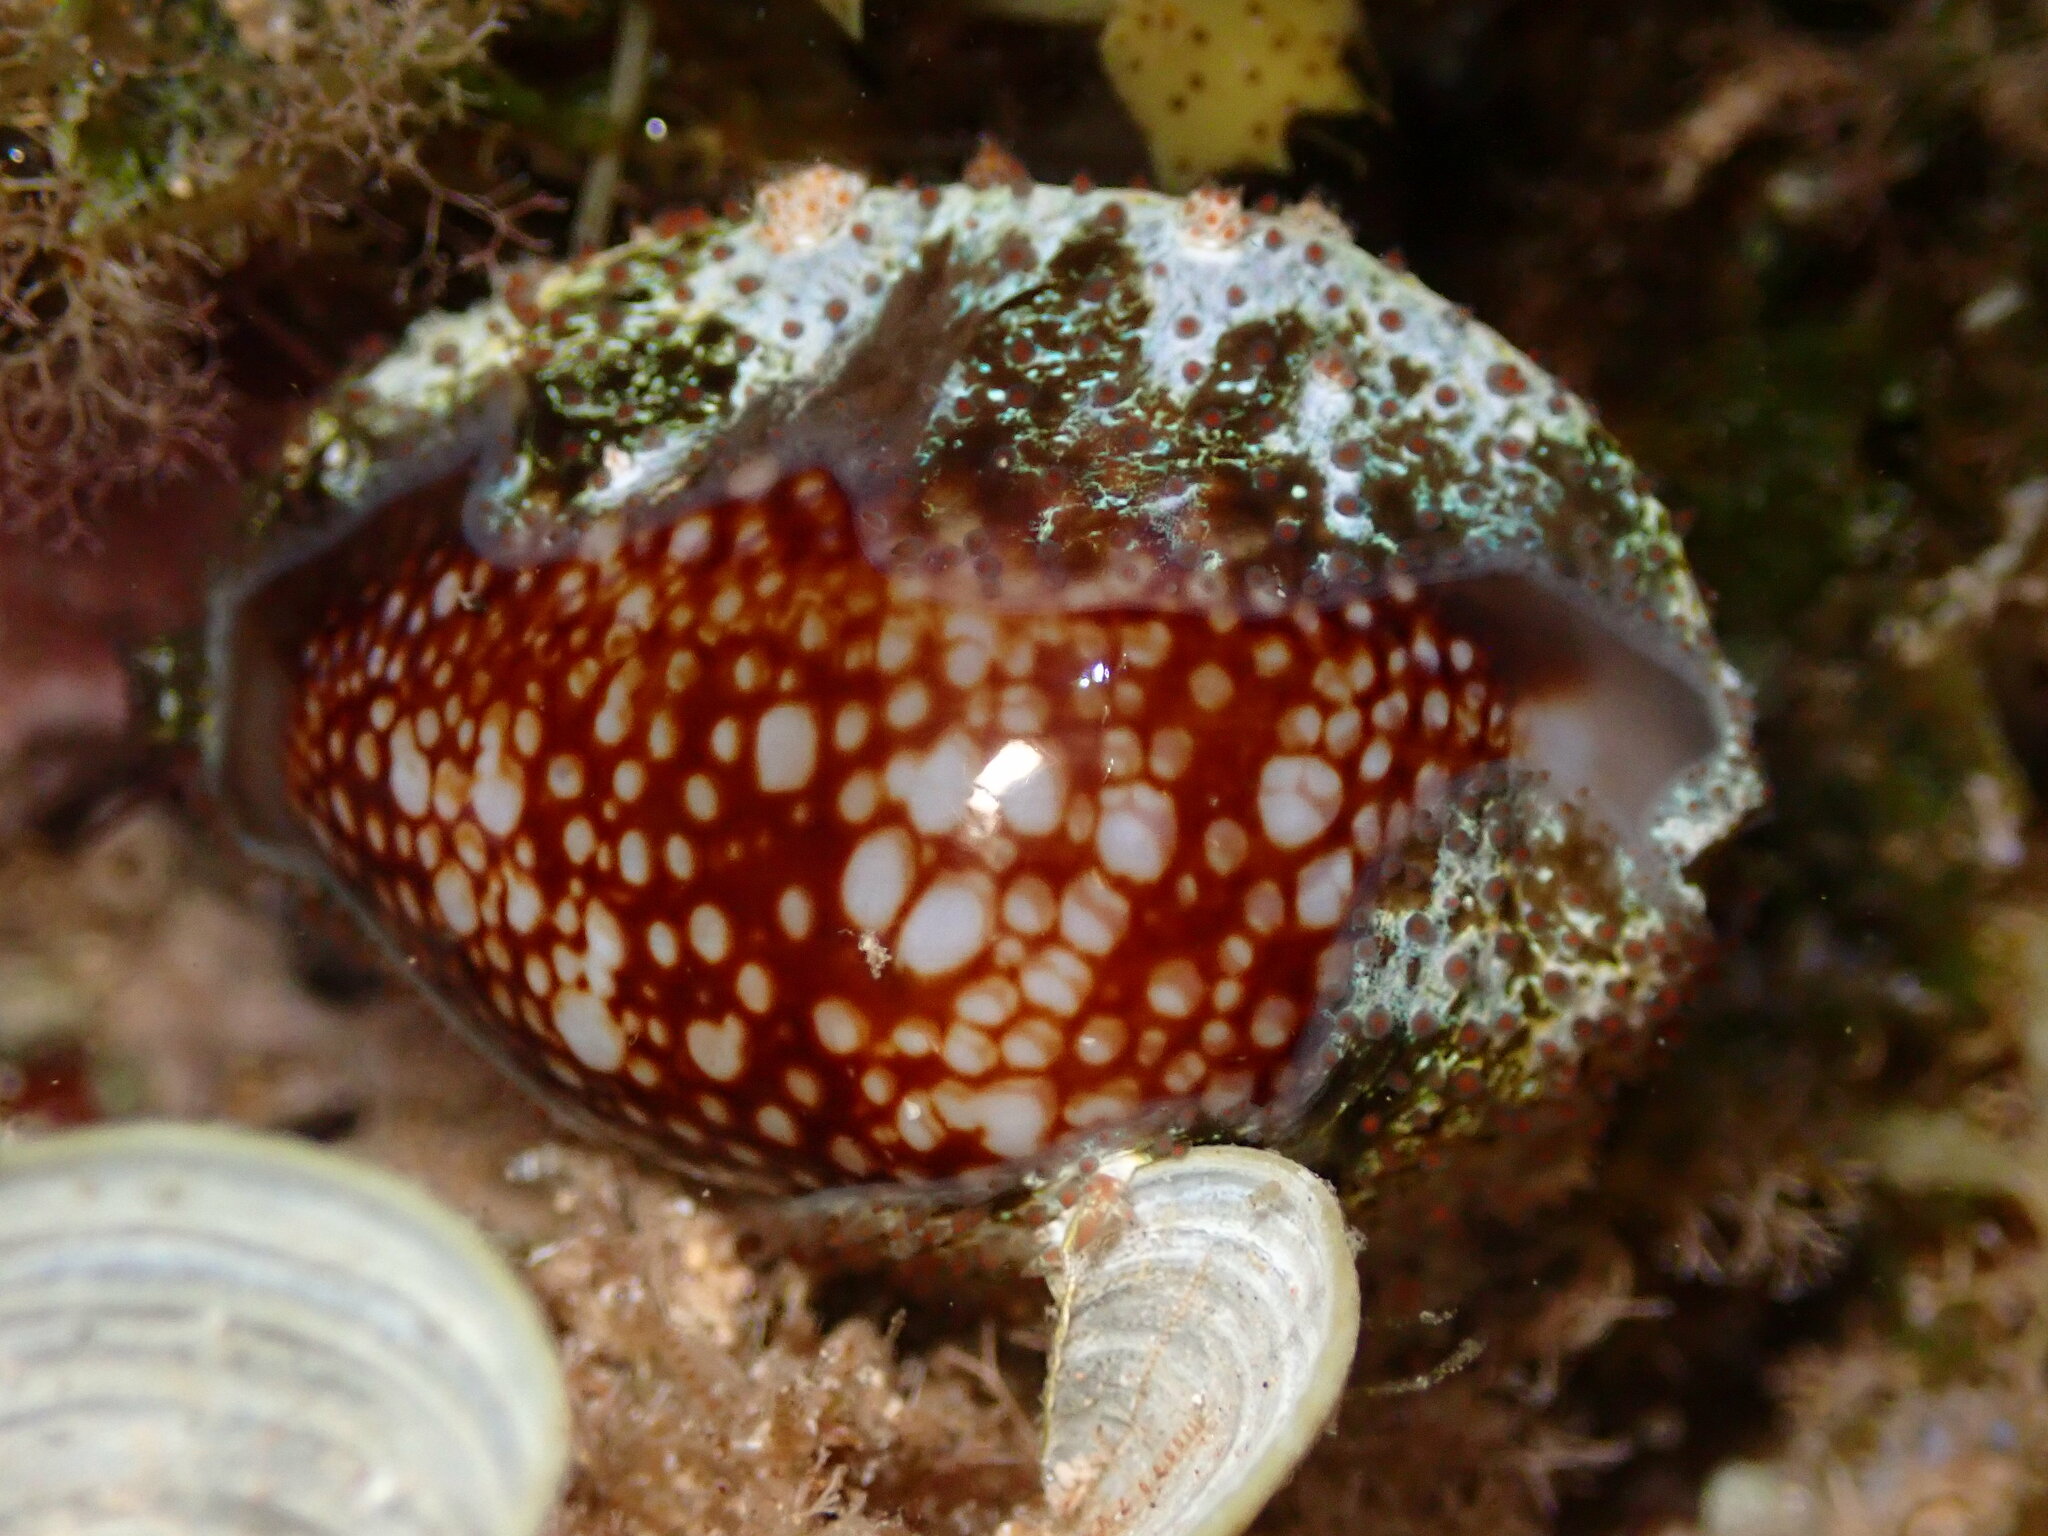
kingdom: Animalia
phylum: Mollusca
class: Gastropoda
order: Littorinimorpha
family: Cypraeidae
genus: Monetaria
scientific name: Monetaria caputophidii
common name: Snake's head cowry
